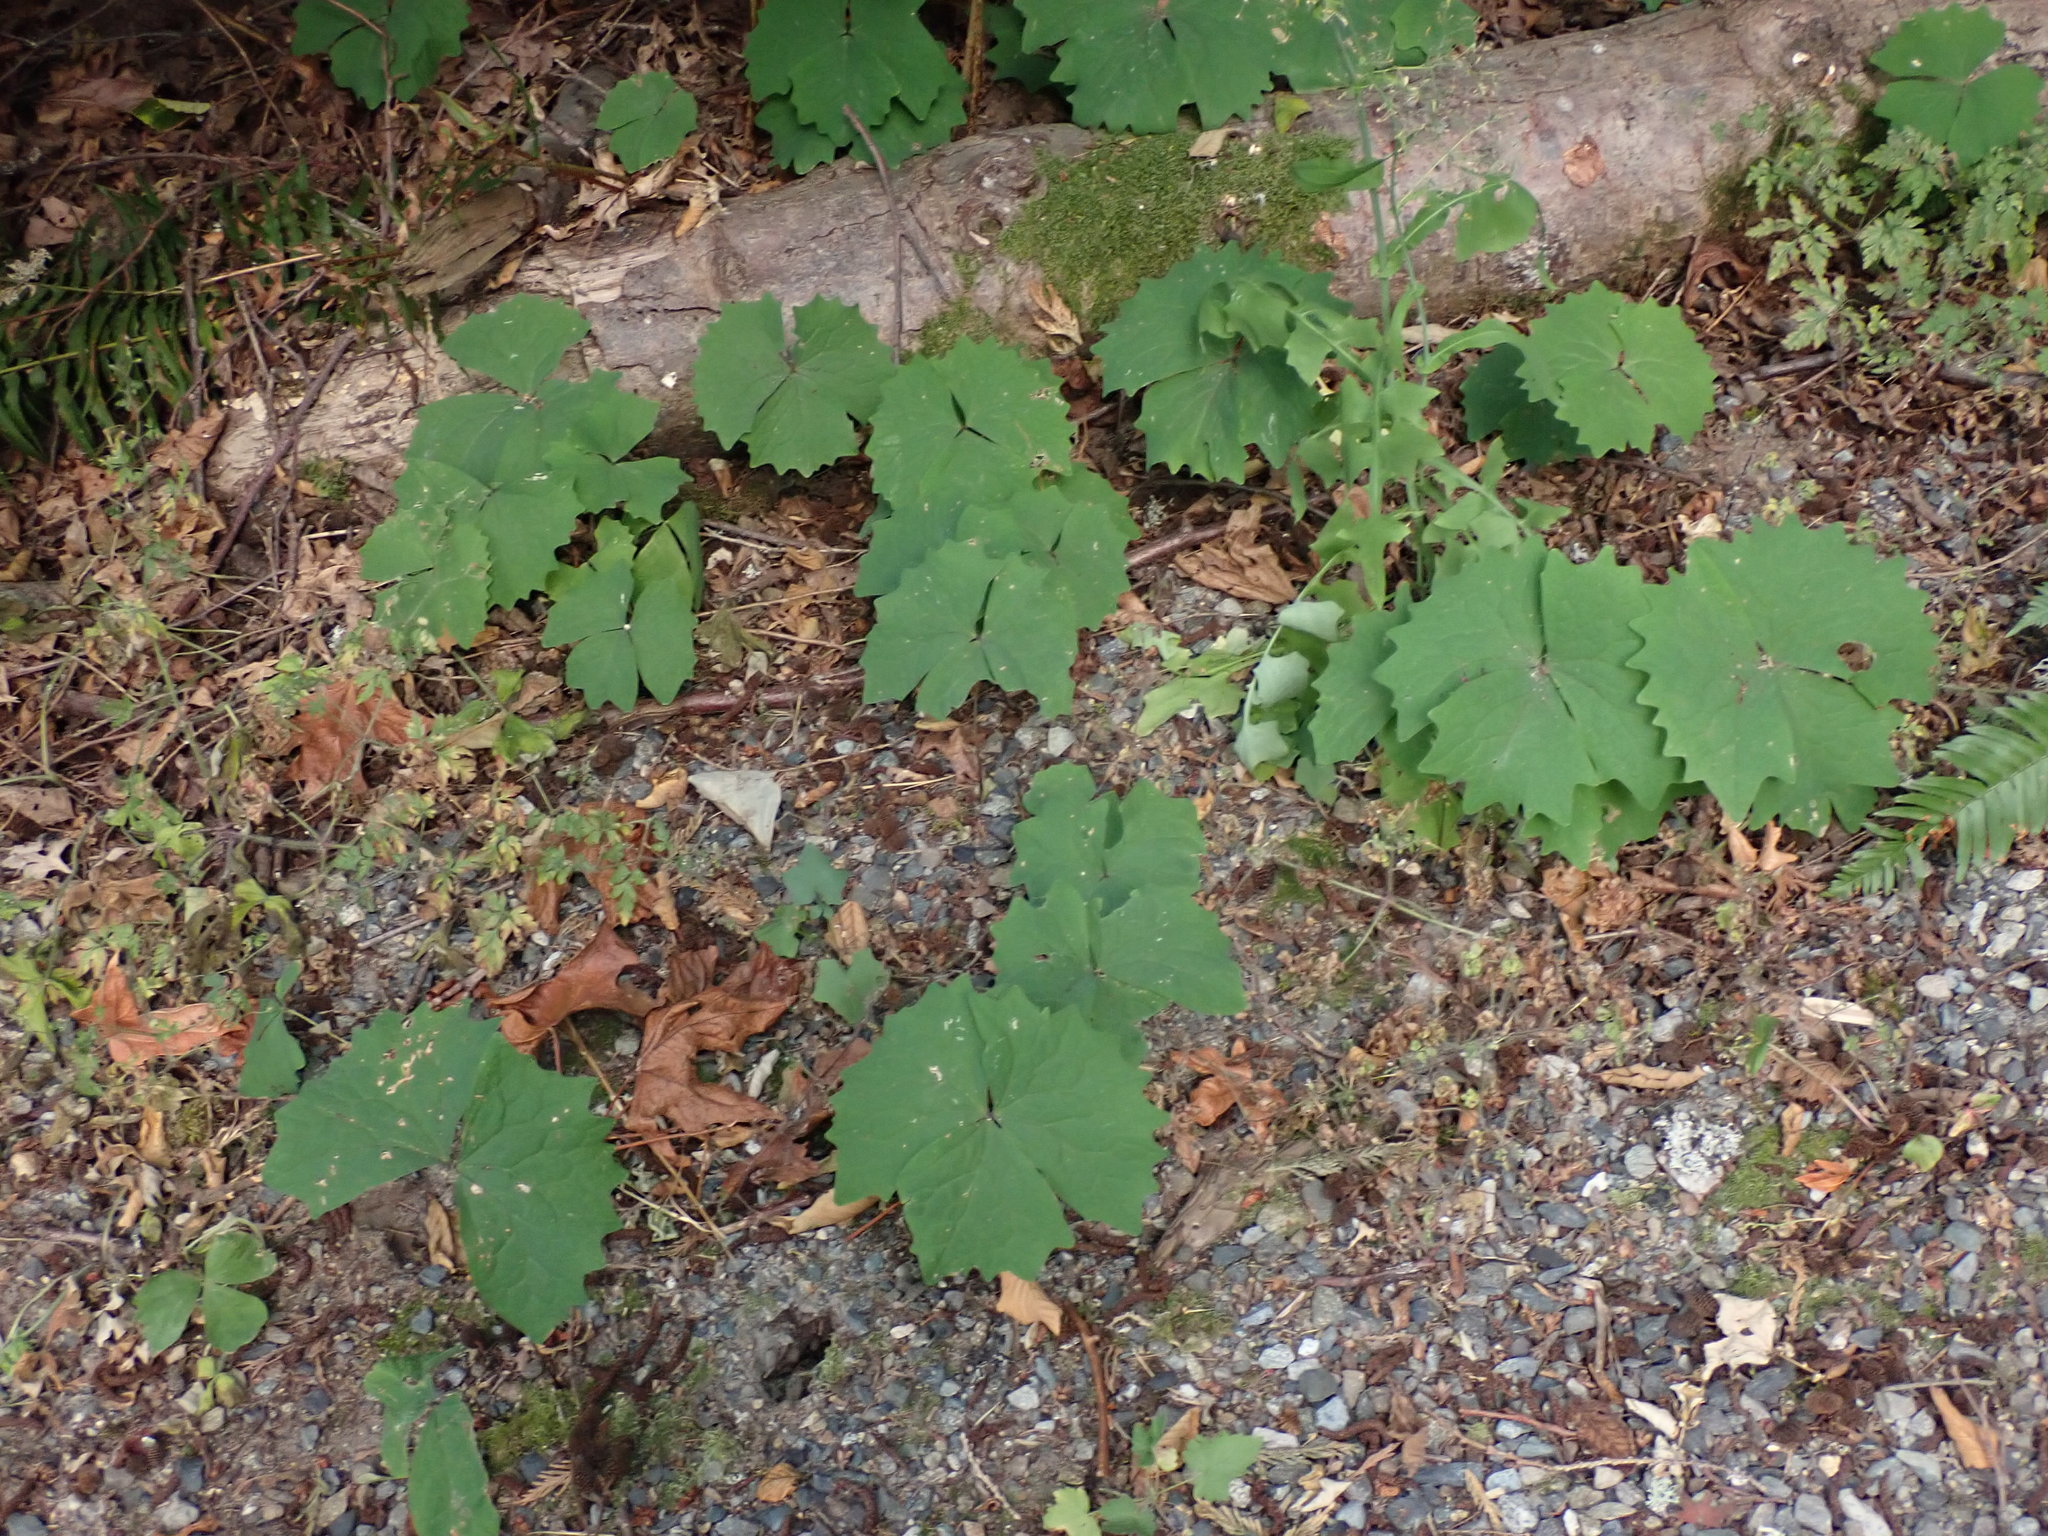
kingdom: Plantae
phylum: Tracheophyta
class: Magnoliopsida
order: Ranunculales
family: Berberidaceae
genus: Achlys
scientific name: Achlys triphylla
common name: Vanilla-leaf
